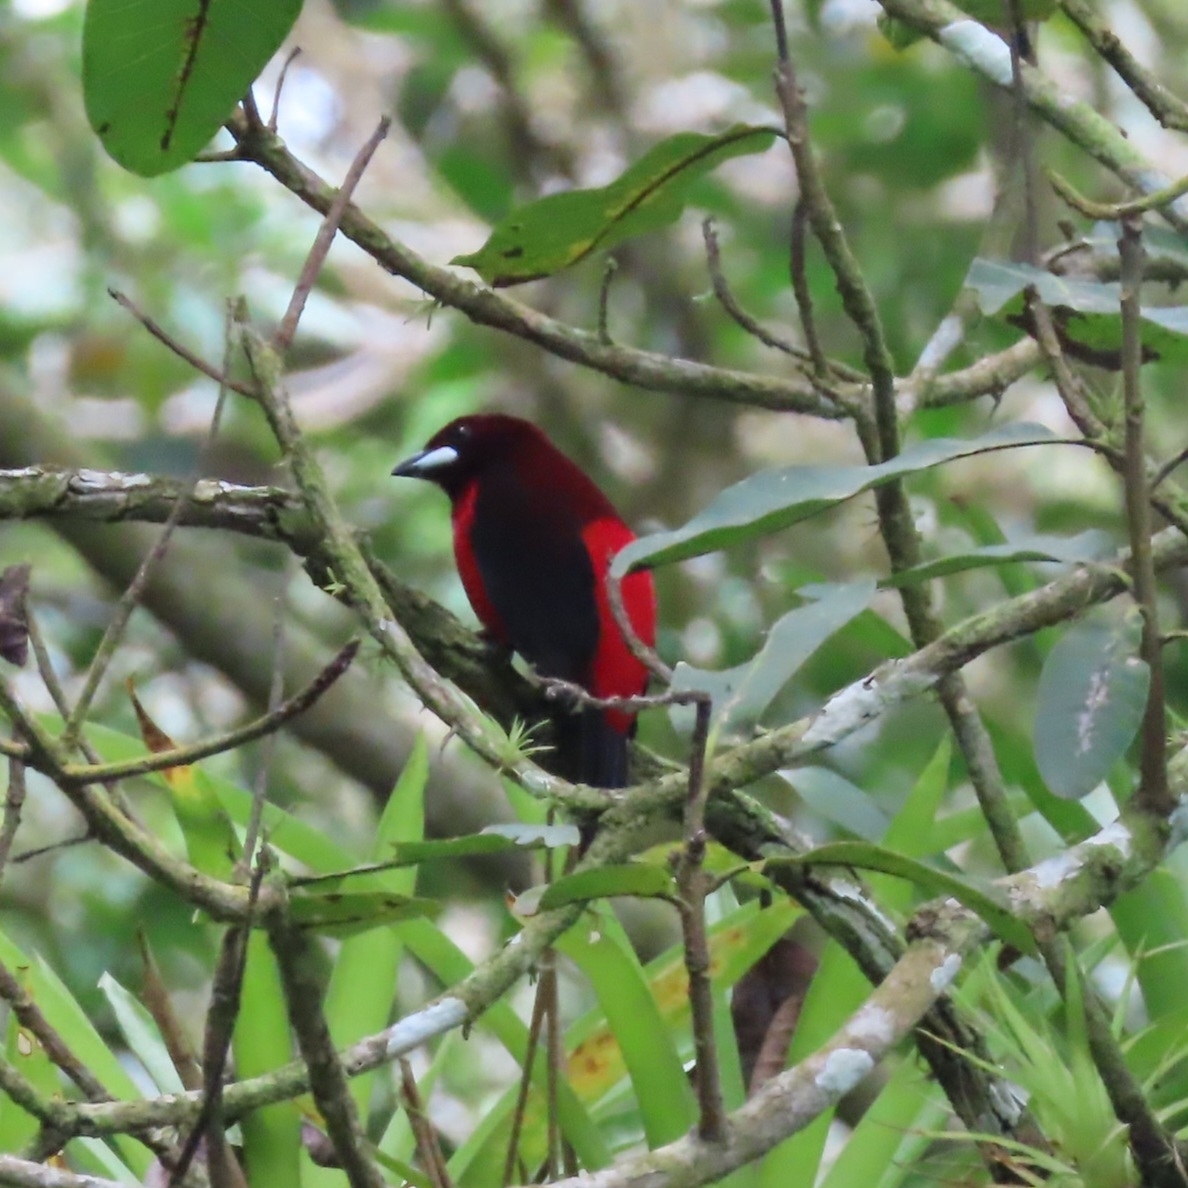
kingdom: Animalia
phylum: Chordata
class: Aves
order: Passeriformes
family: Thraupidae
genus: Ramphocelus
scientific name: Ramphocelus dimidiatus
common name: Crimson-backed tanager
